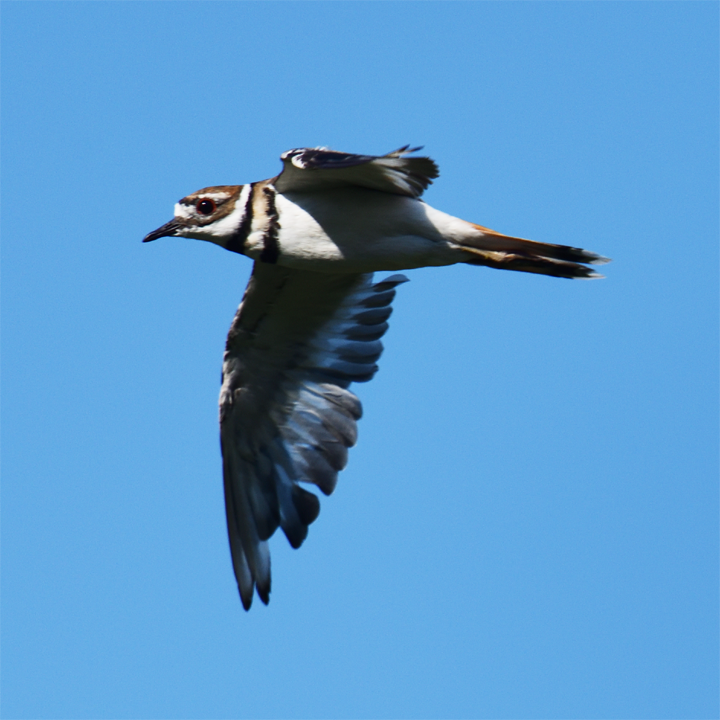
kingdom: Animalia
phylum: Chordata
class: Aves
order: Charadriiformes
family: Charadriidae
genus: Charadrius
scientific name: Charadrius vociferus
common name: Killdeer
